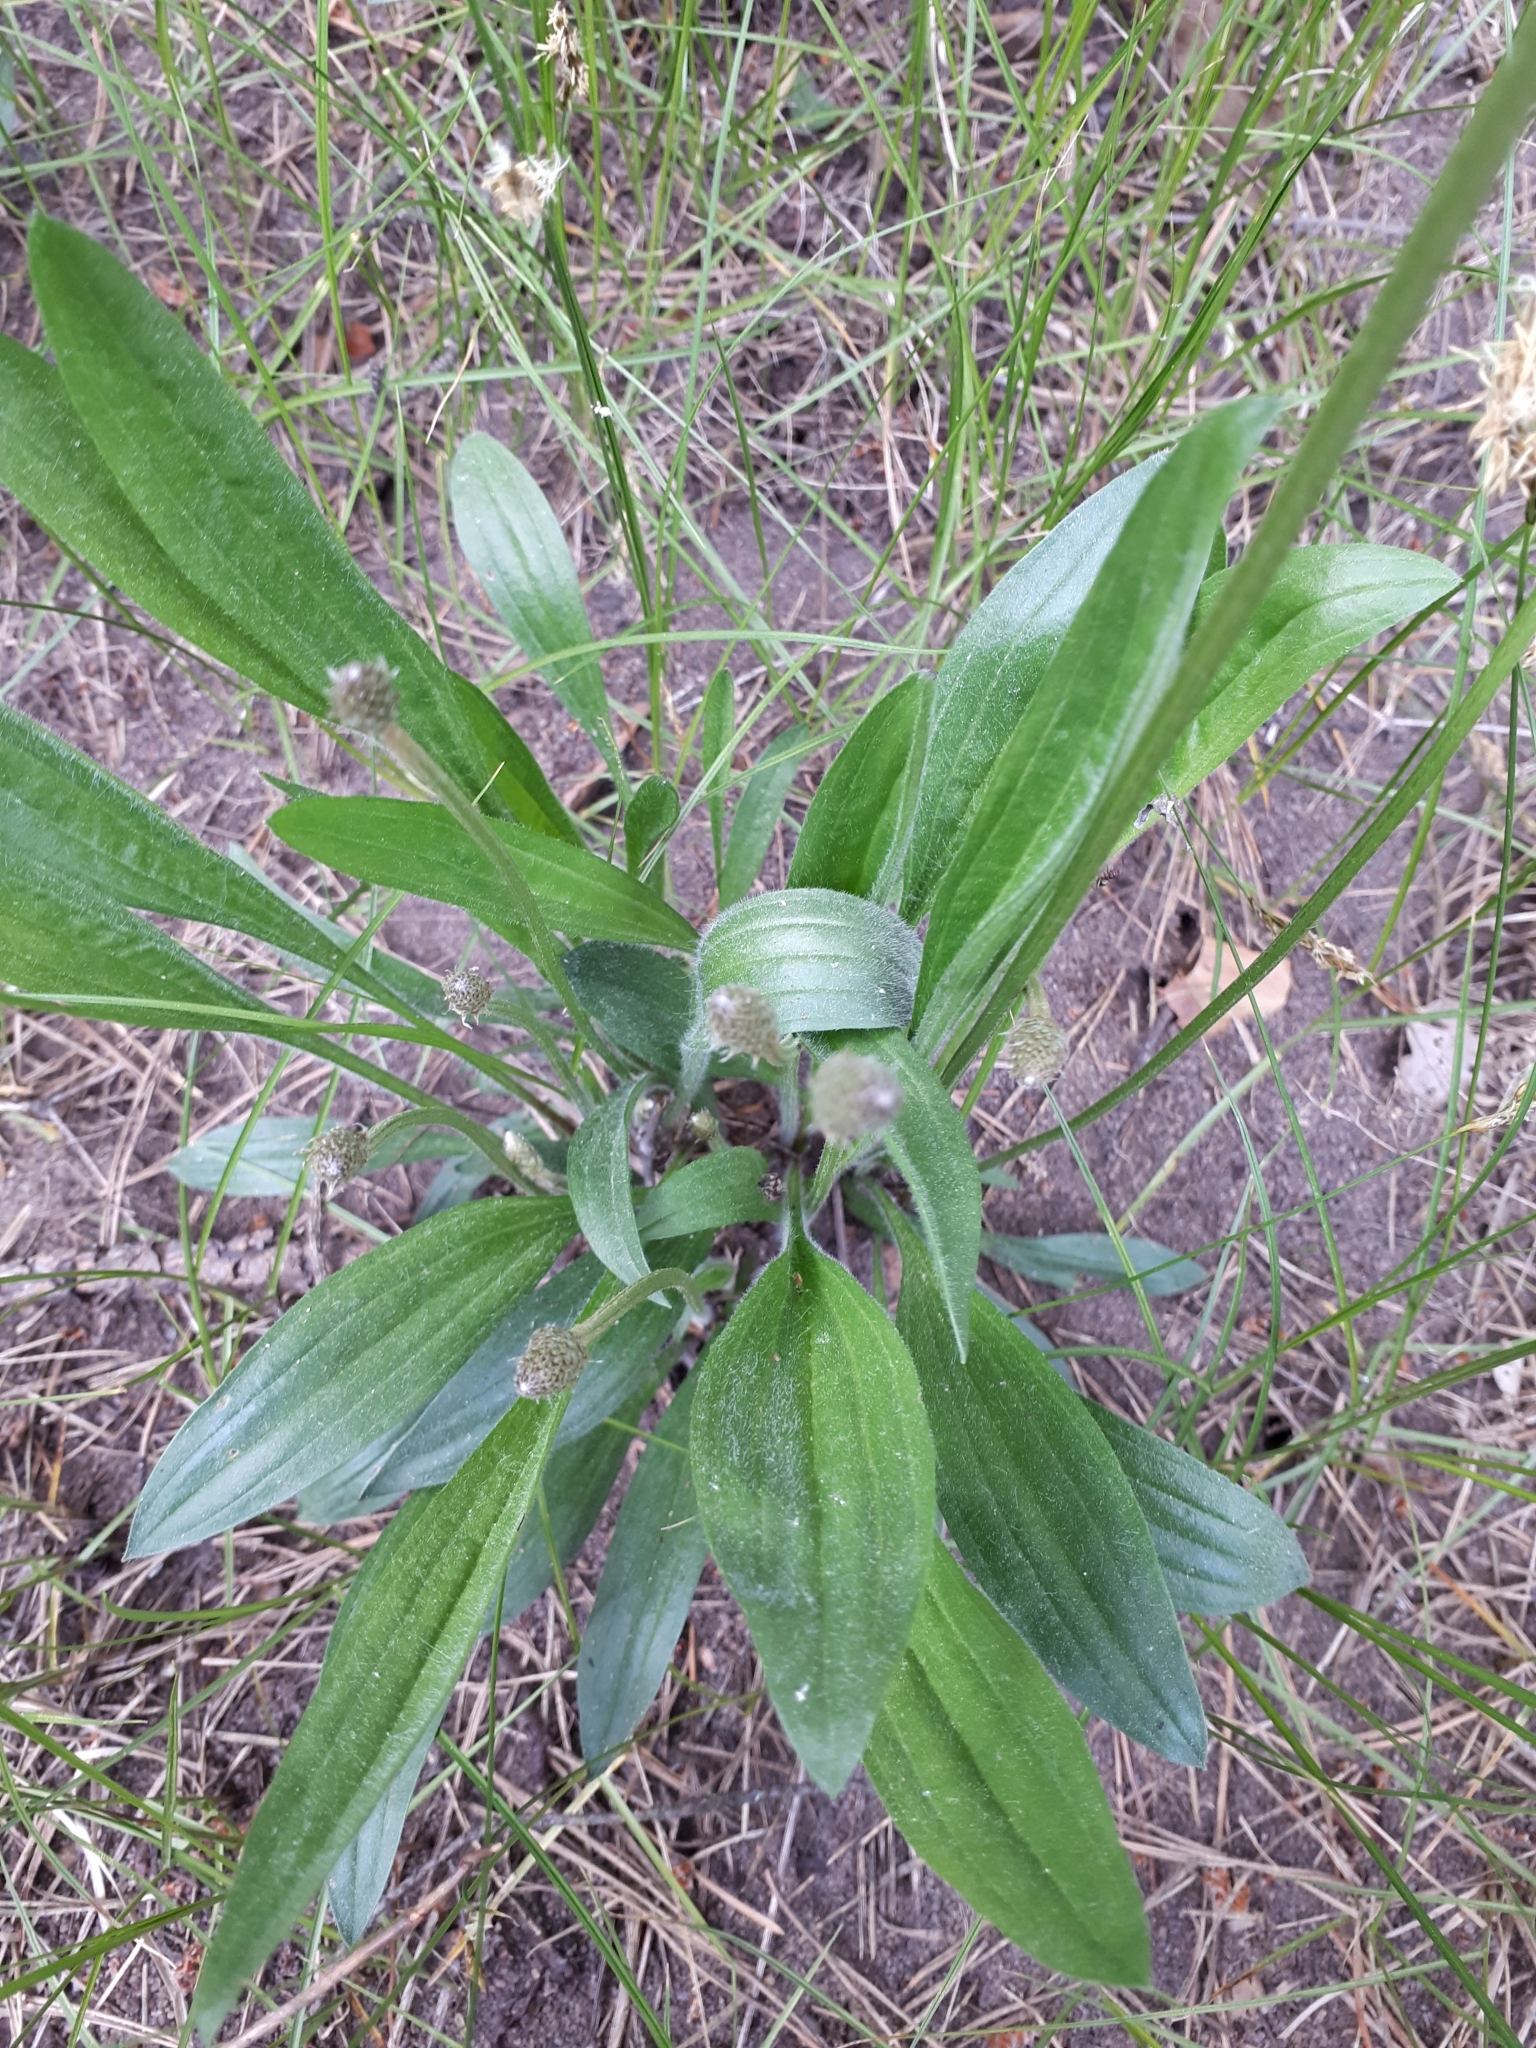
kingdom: Plantae
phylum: Tracheophyta
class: Magnoliopsida
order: Lamiales
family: Plantaginaceae
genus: Plantago
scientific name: Plantago lanceolata
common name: Ribwort plantain
